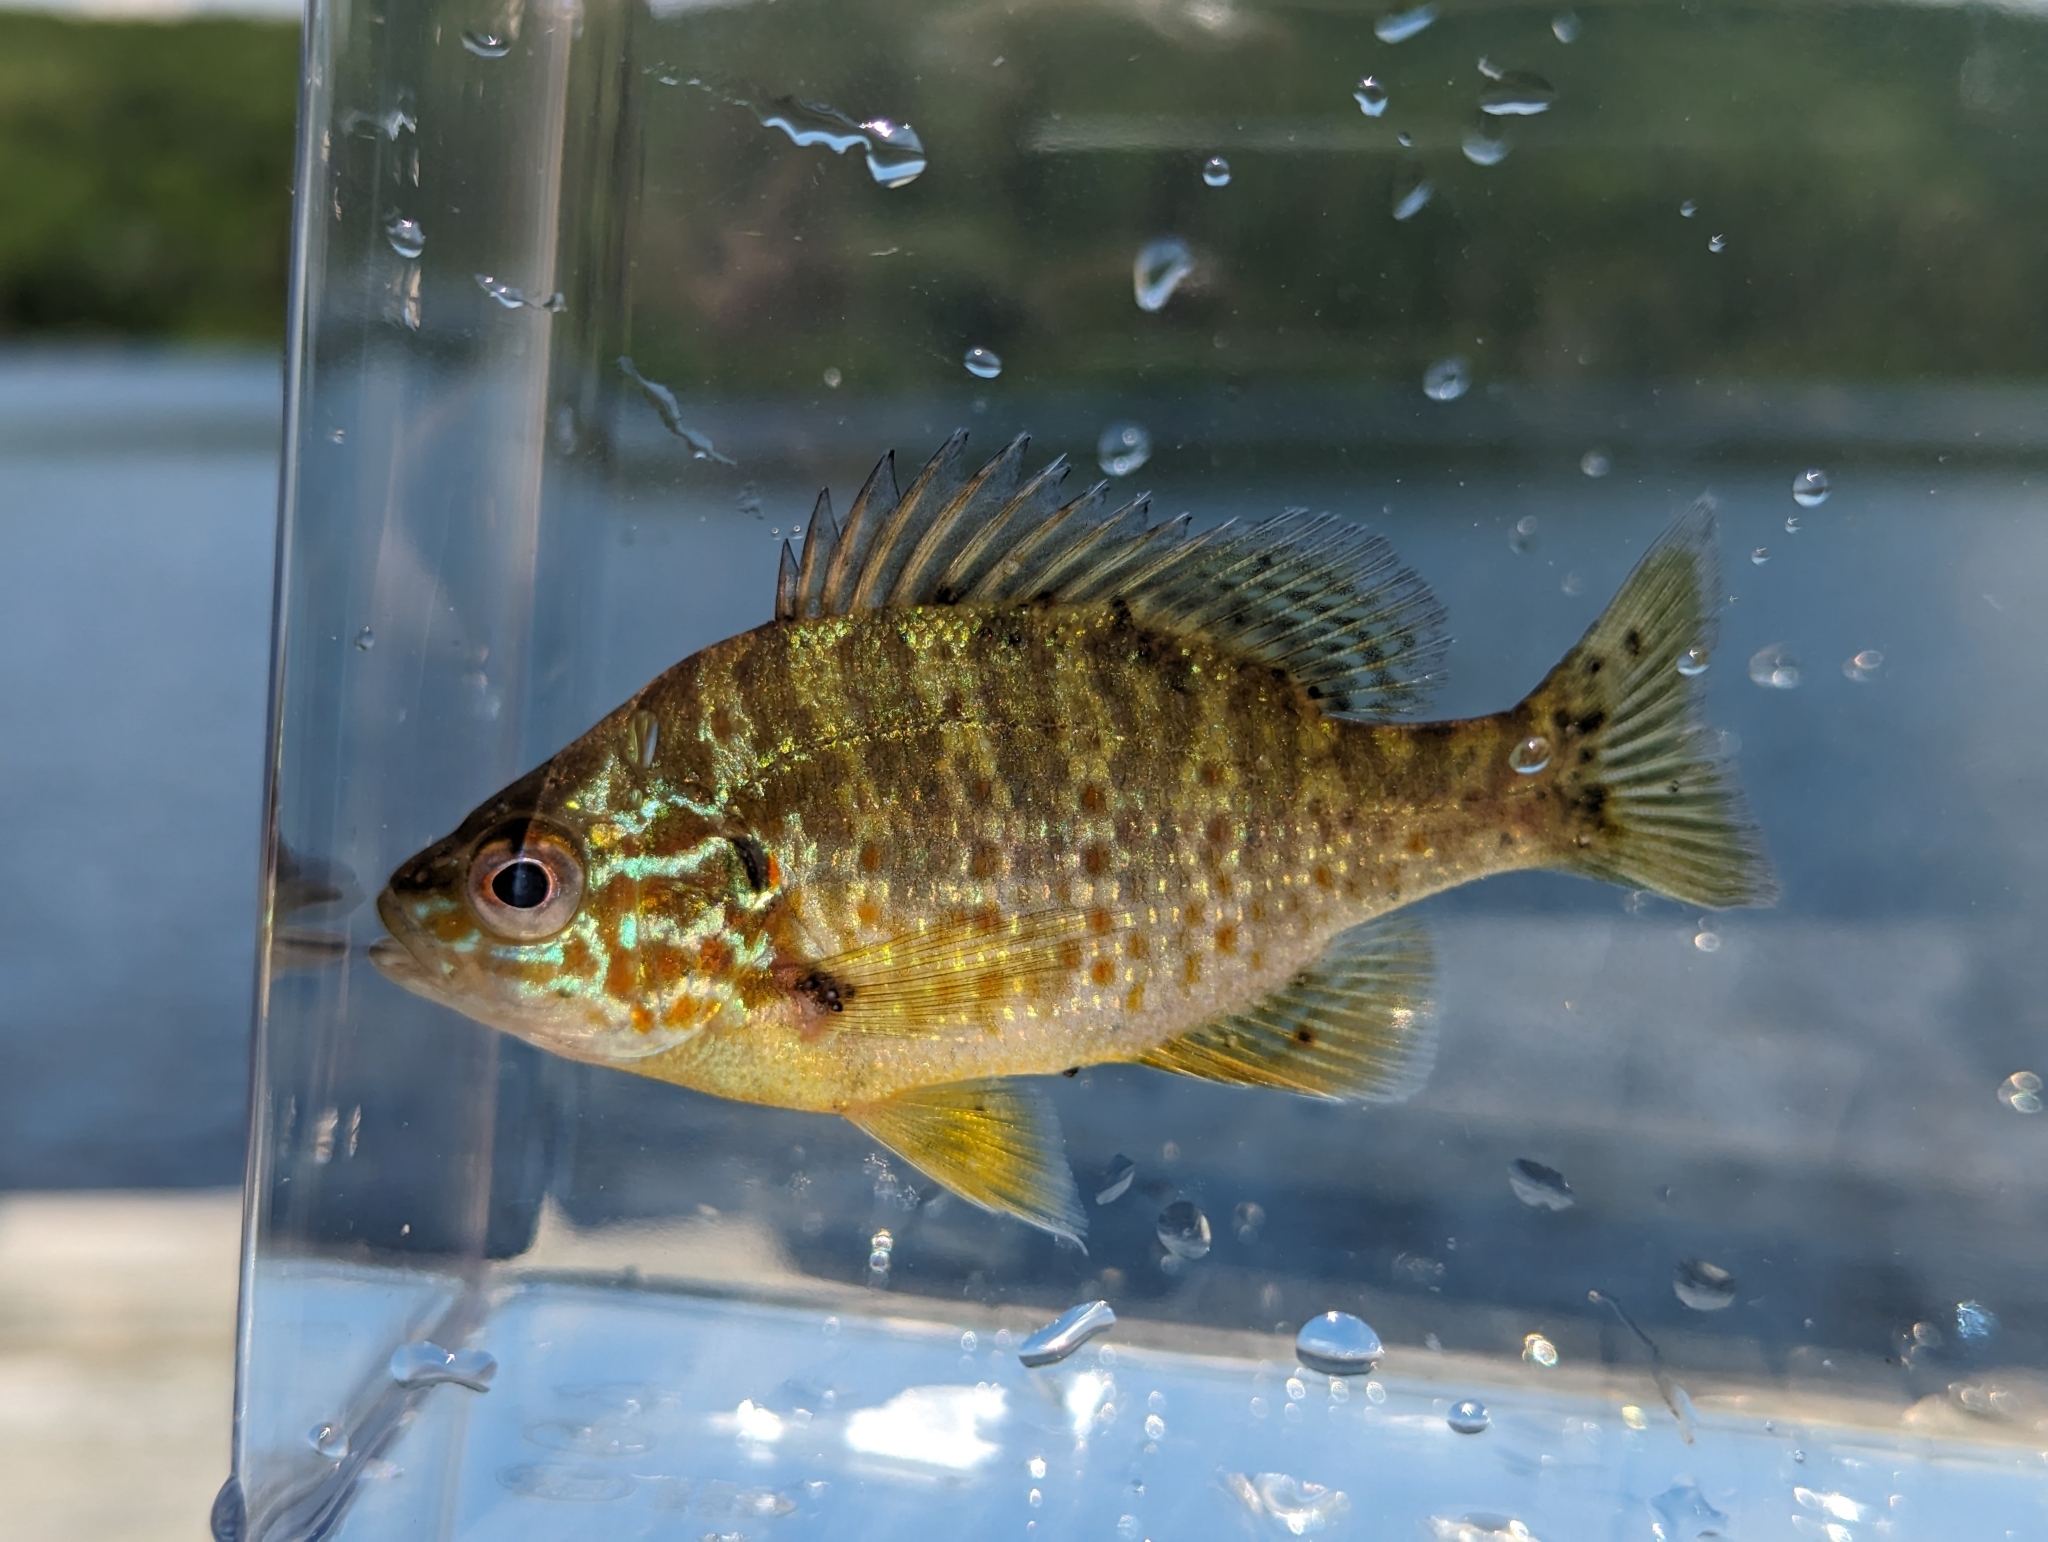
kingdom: Animalia
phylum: Chordata
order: Perciformes
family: Centrarchidae
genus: Lepomis
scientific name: Lepomis gibbosus
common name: Pumpkinseed
